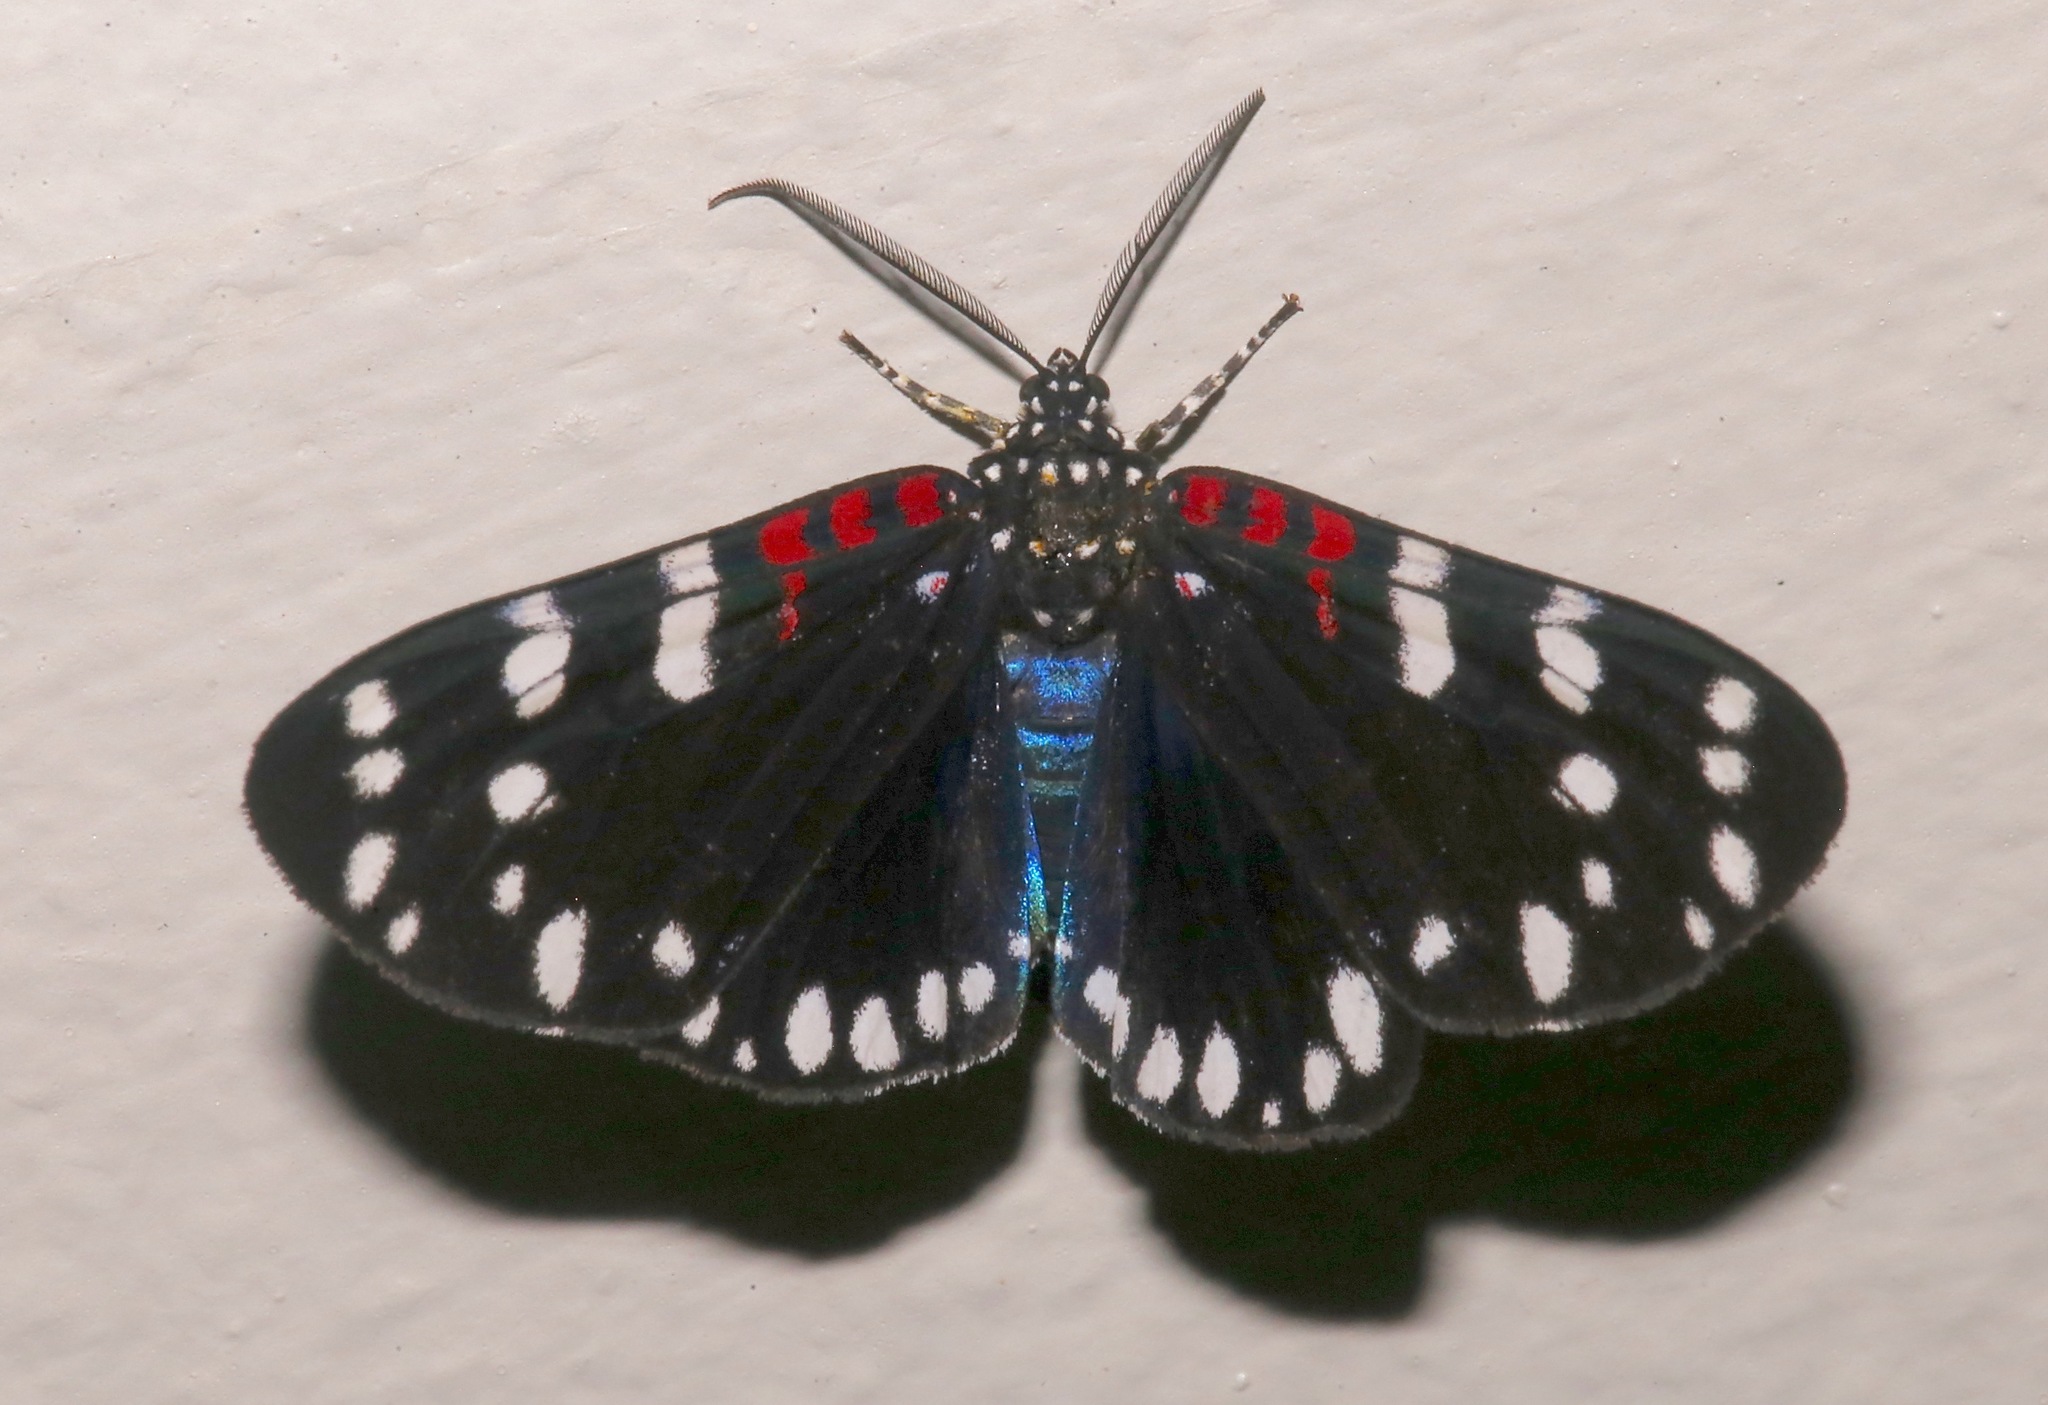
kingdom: Animalia
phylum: Arthropoda
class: Insecta
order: Lepidoptera
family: Erebidae
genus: Composia
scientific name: Composia fidelissima
